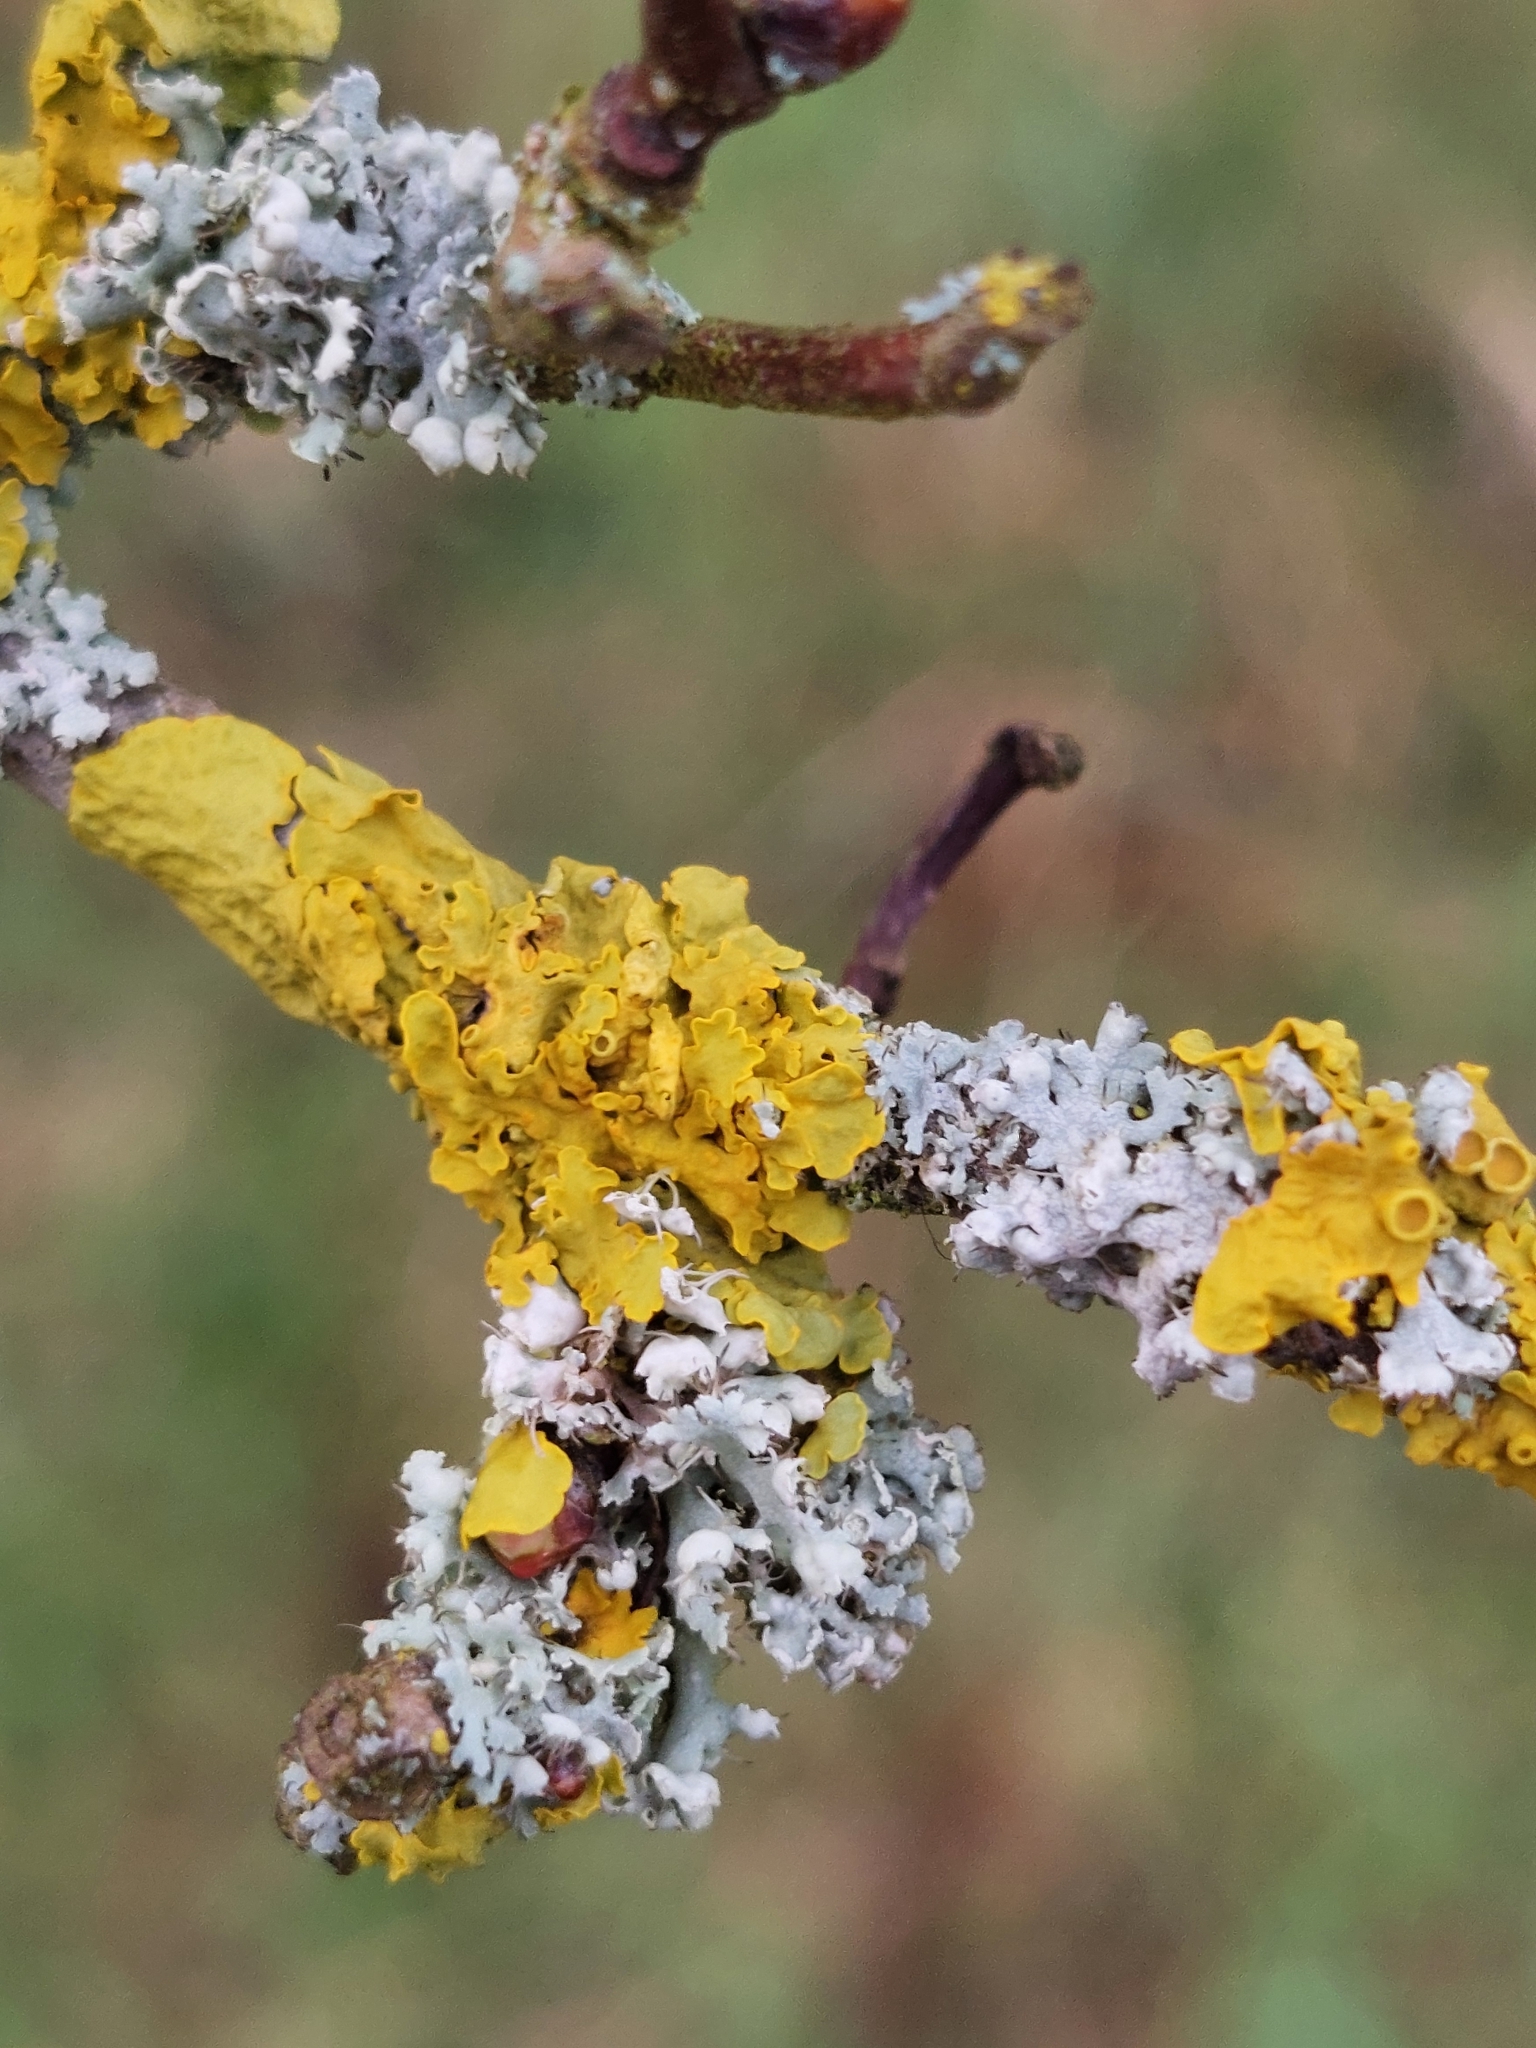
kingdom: Fungi
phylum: Ascomycota
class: Lecanoromycetes
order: Teloschistales
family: Teloschistaceae
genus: Xanthoria
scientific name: Xanthoria parietina
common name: Common orange lichen
